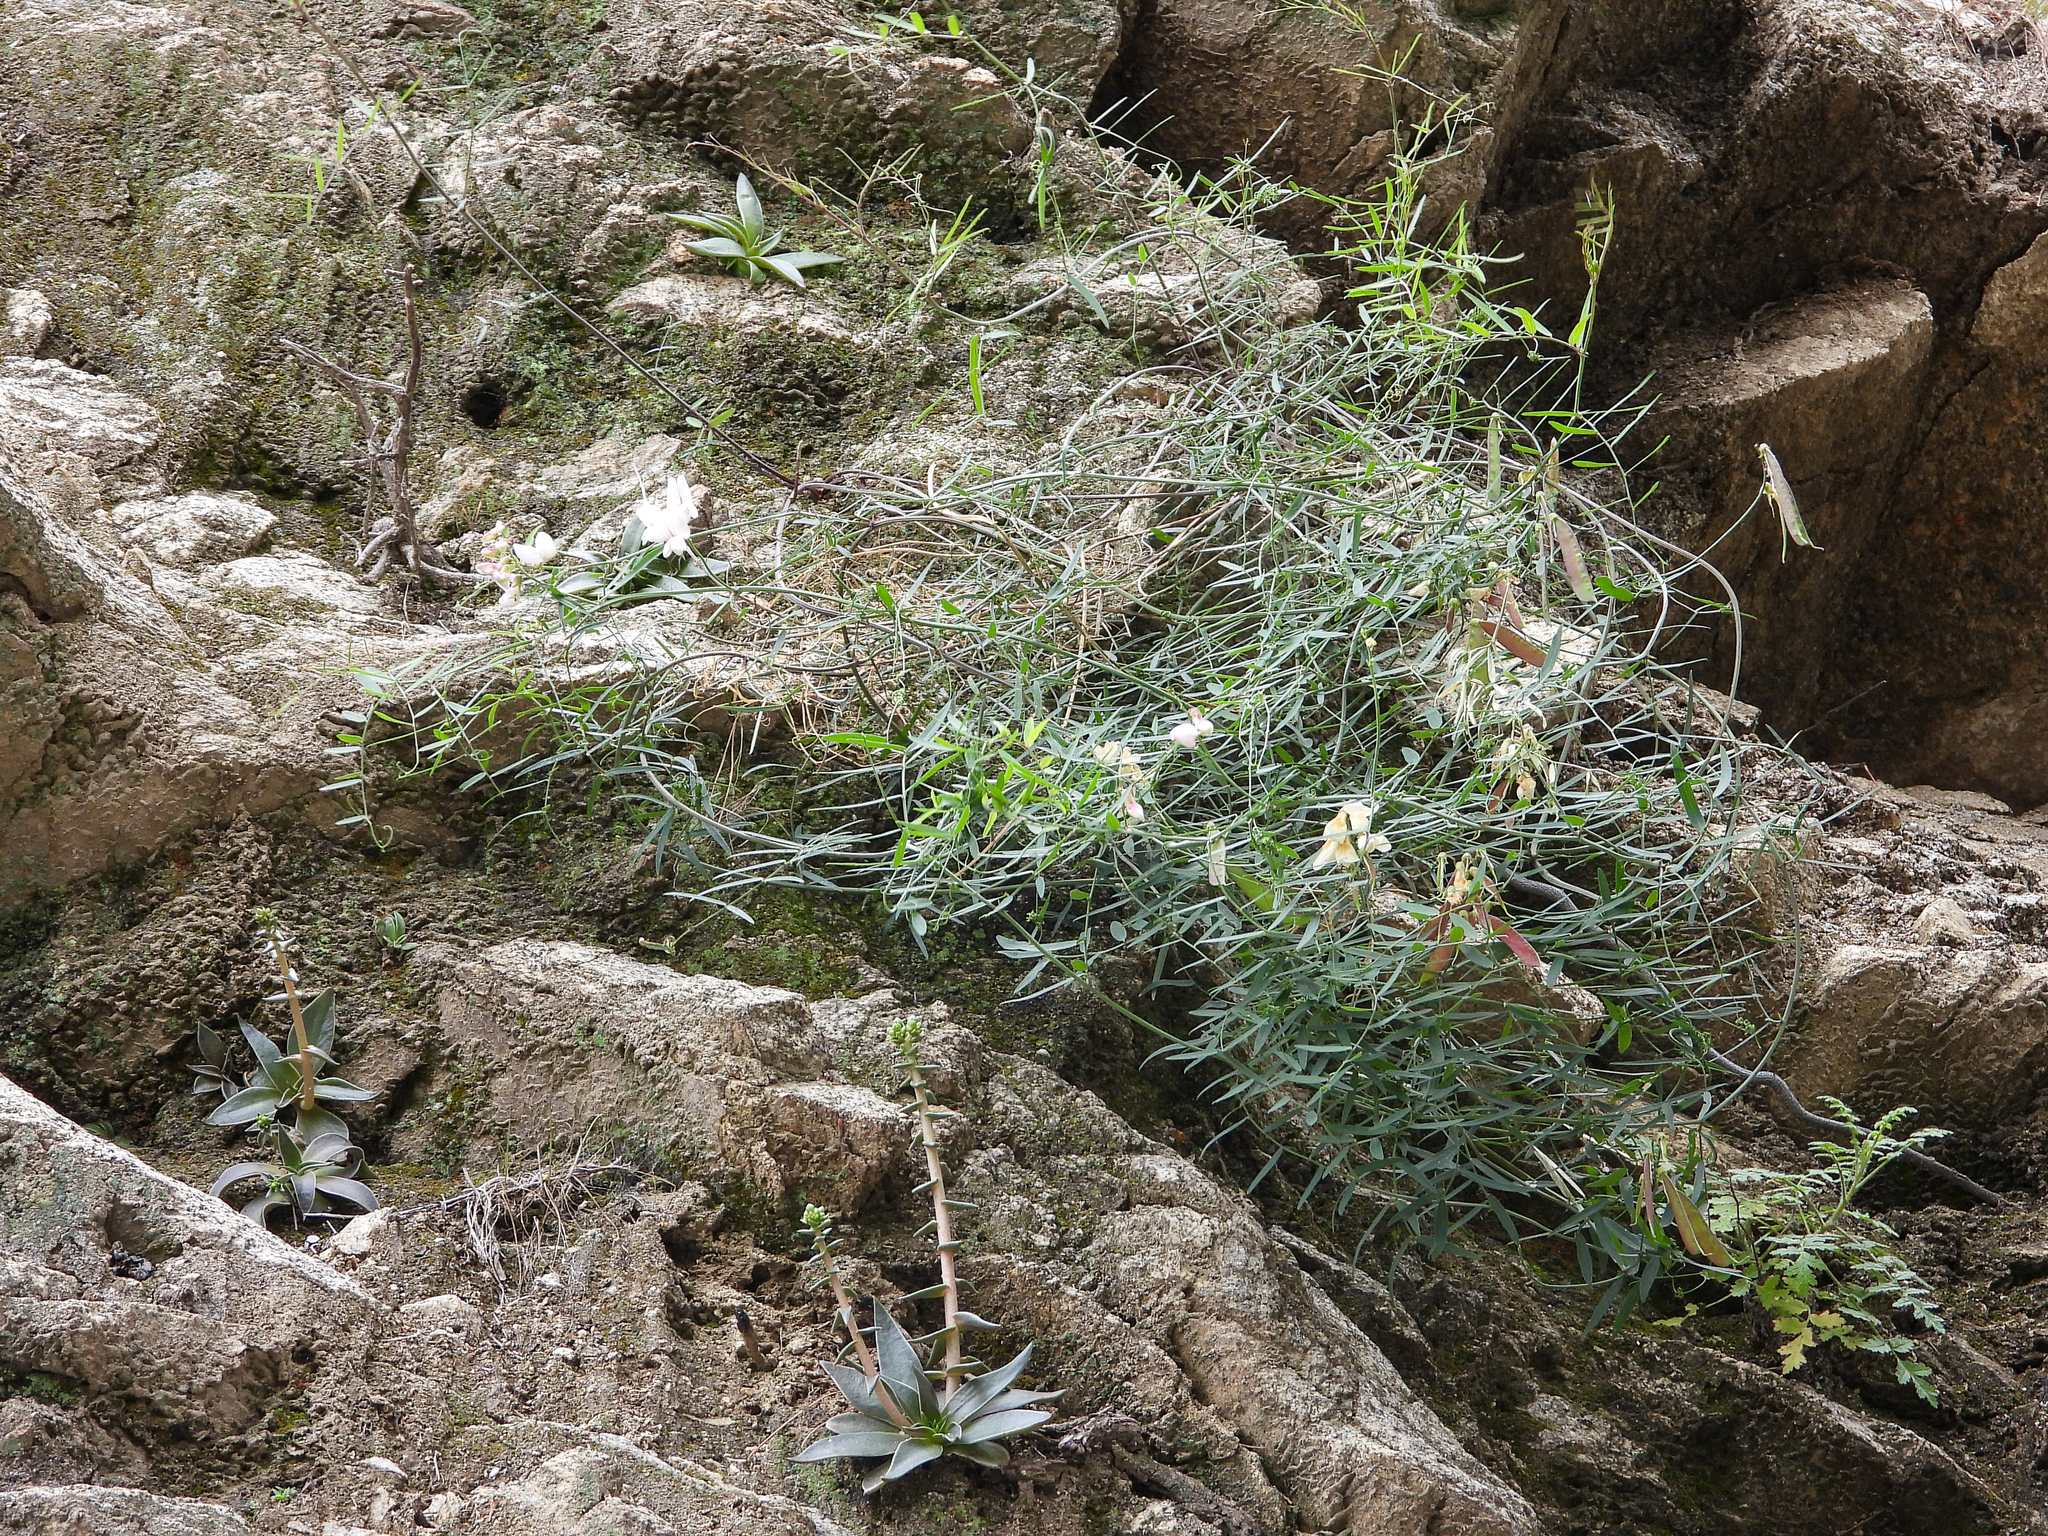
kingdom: Plantae
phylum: Tracheophyta
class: Magnoliopsida
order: Fabales
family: Fabaceae
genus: Lathyrus
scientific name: Lathyrus vestitus
